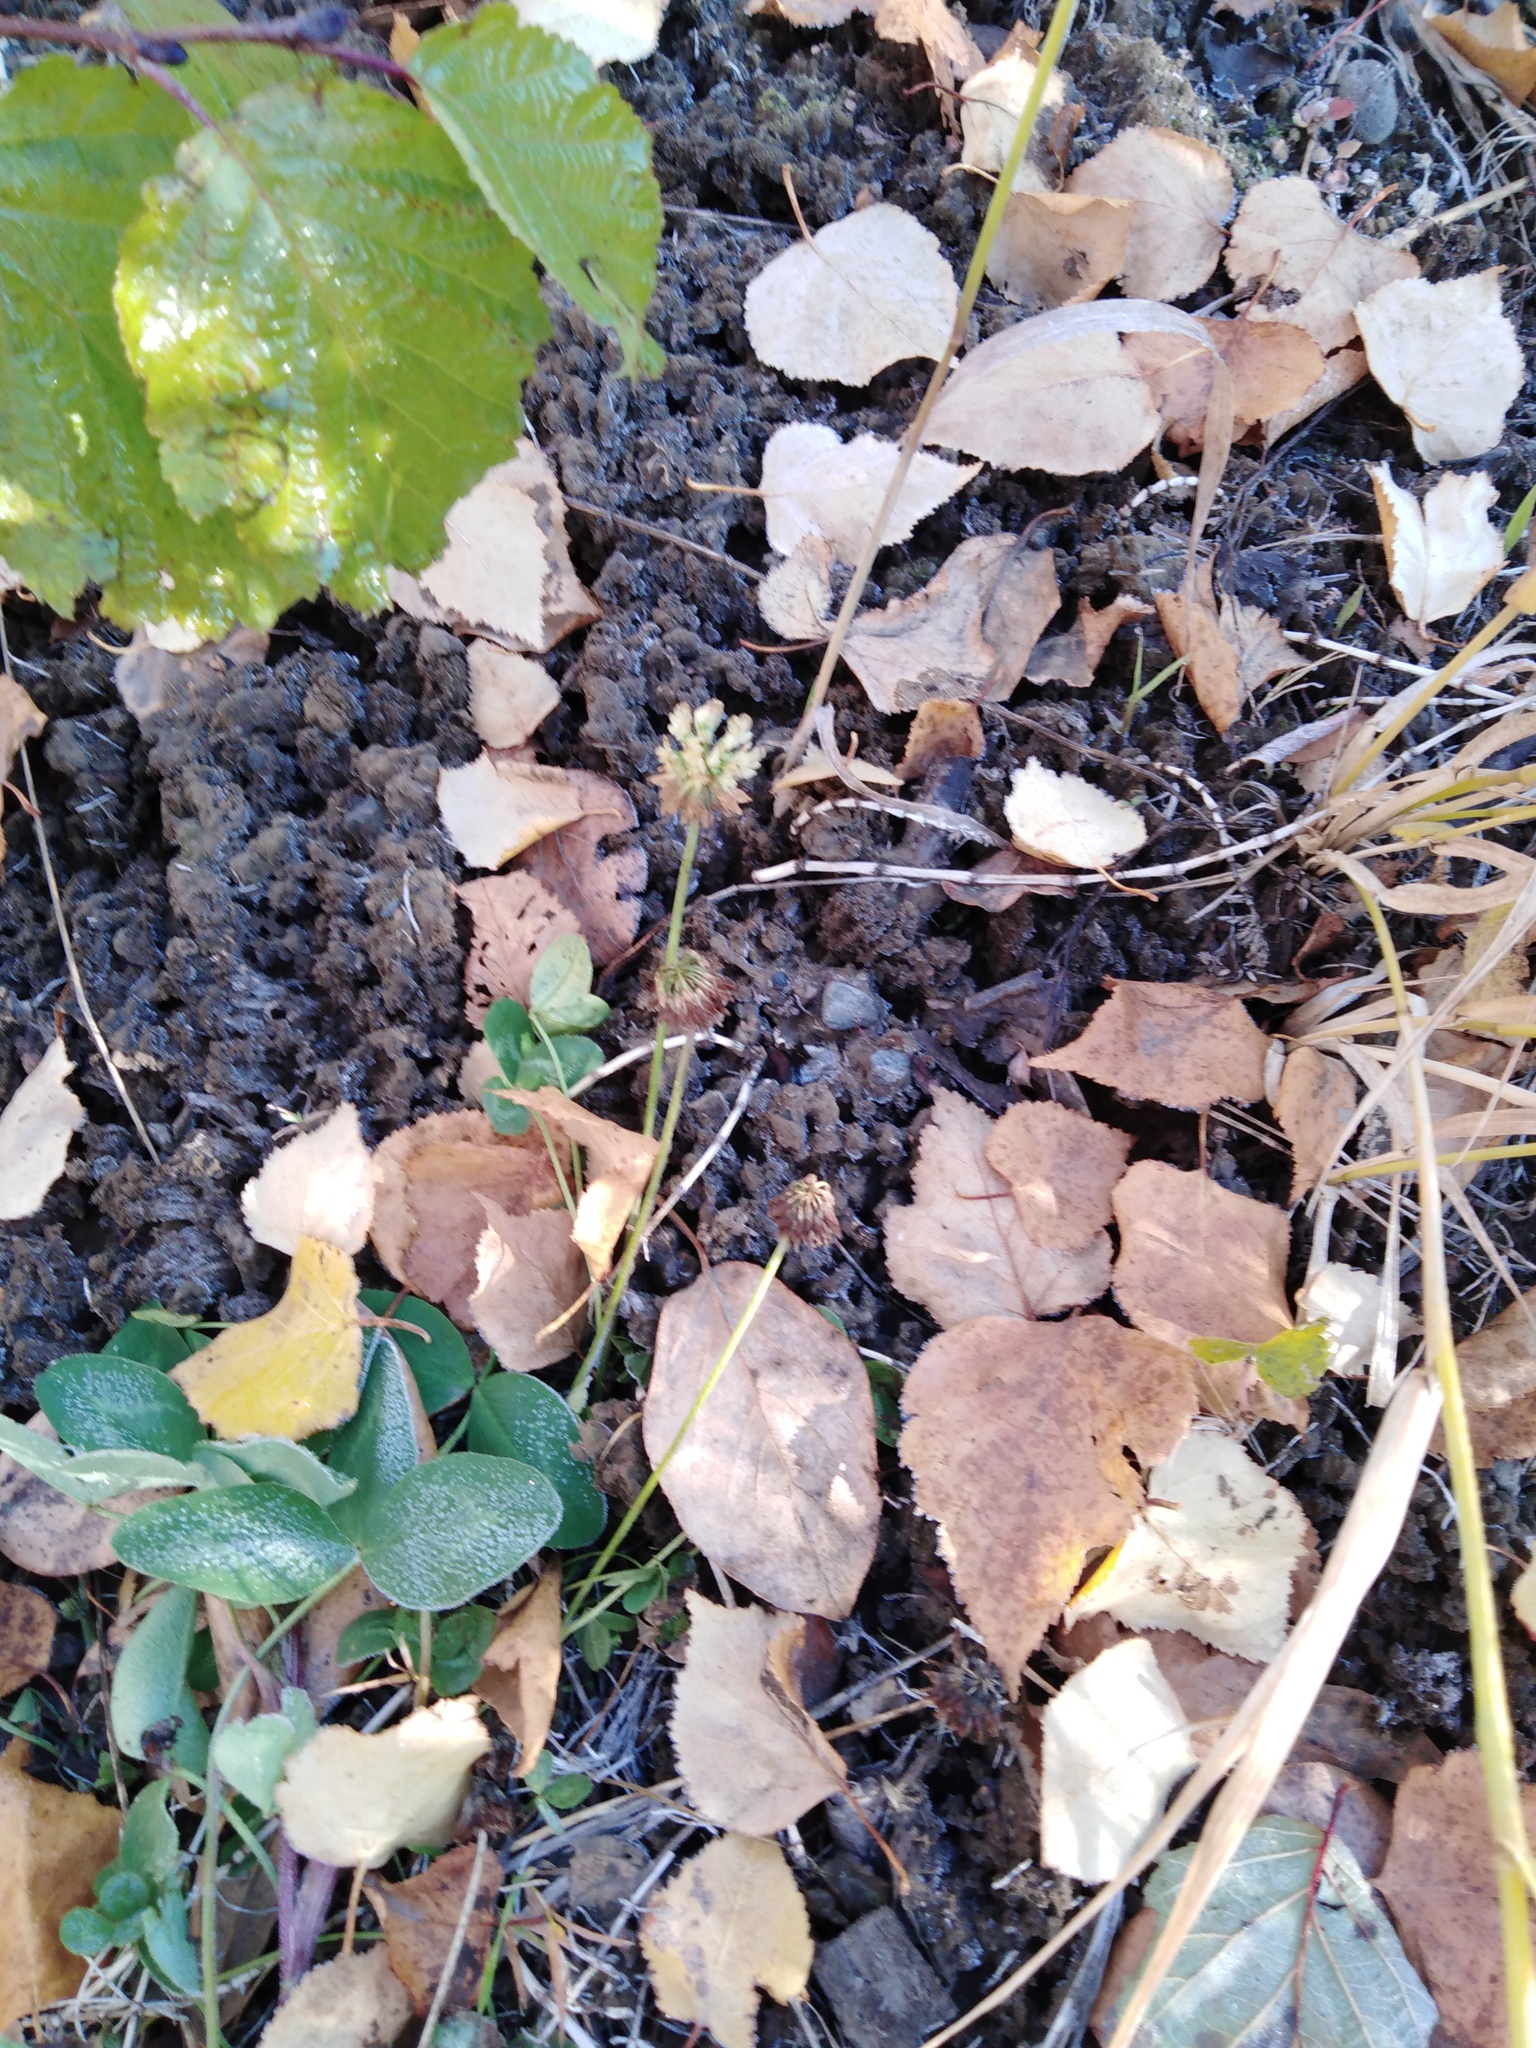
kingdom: Plantae
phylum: Tracheophyta
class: Magnoliopsida
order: Fabales
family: Fabaceae
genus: Trifolium
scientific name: Trifolium pratense
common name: Red clover
